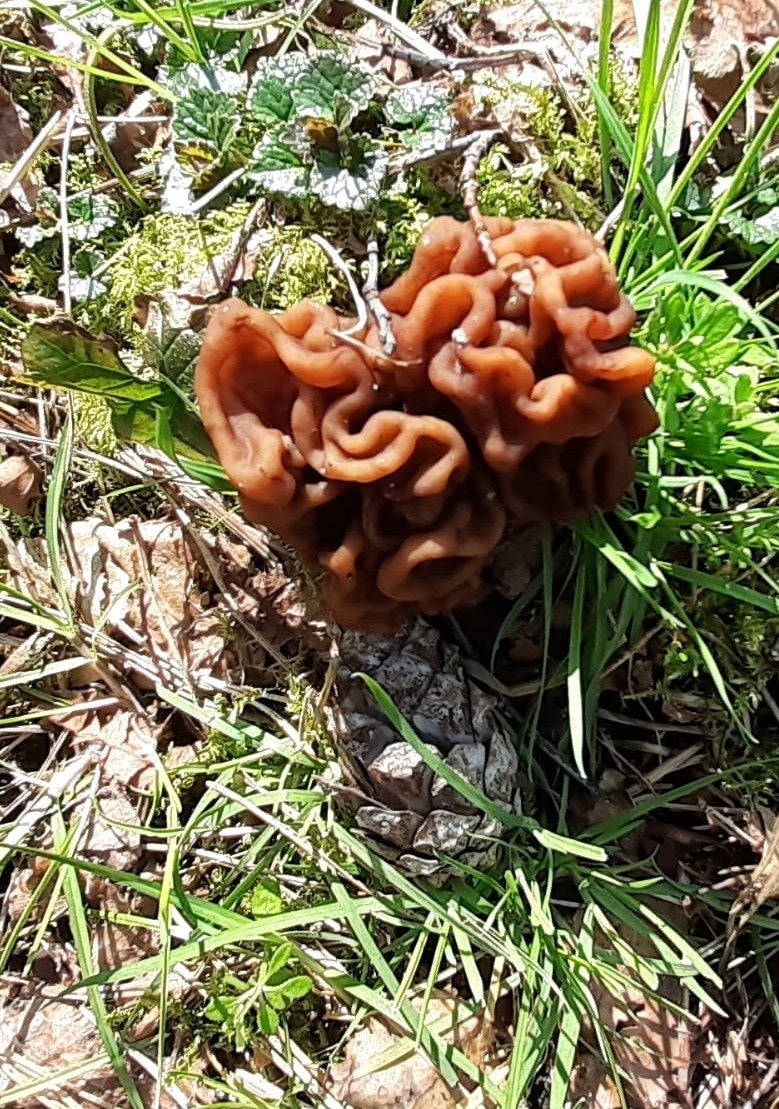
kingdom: Fungi
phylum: Ascomycota
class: Pezizomycetes
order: Pezizales
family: Discinaceae
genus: Gyromitra
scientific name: Gyromitra esculenta
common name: False morel
